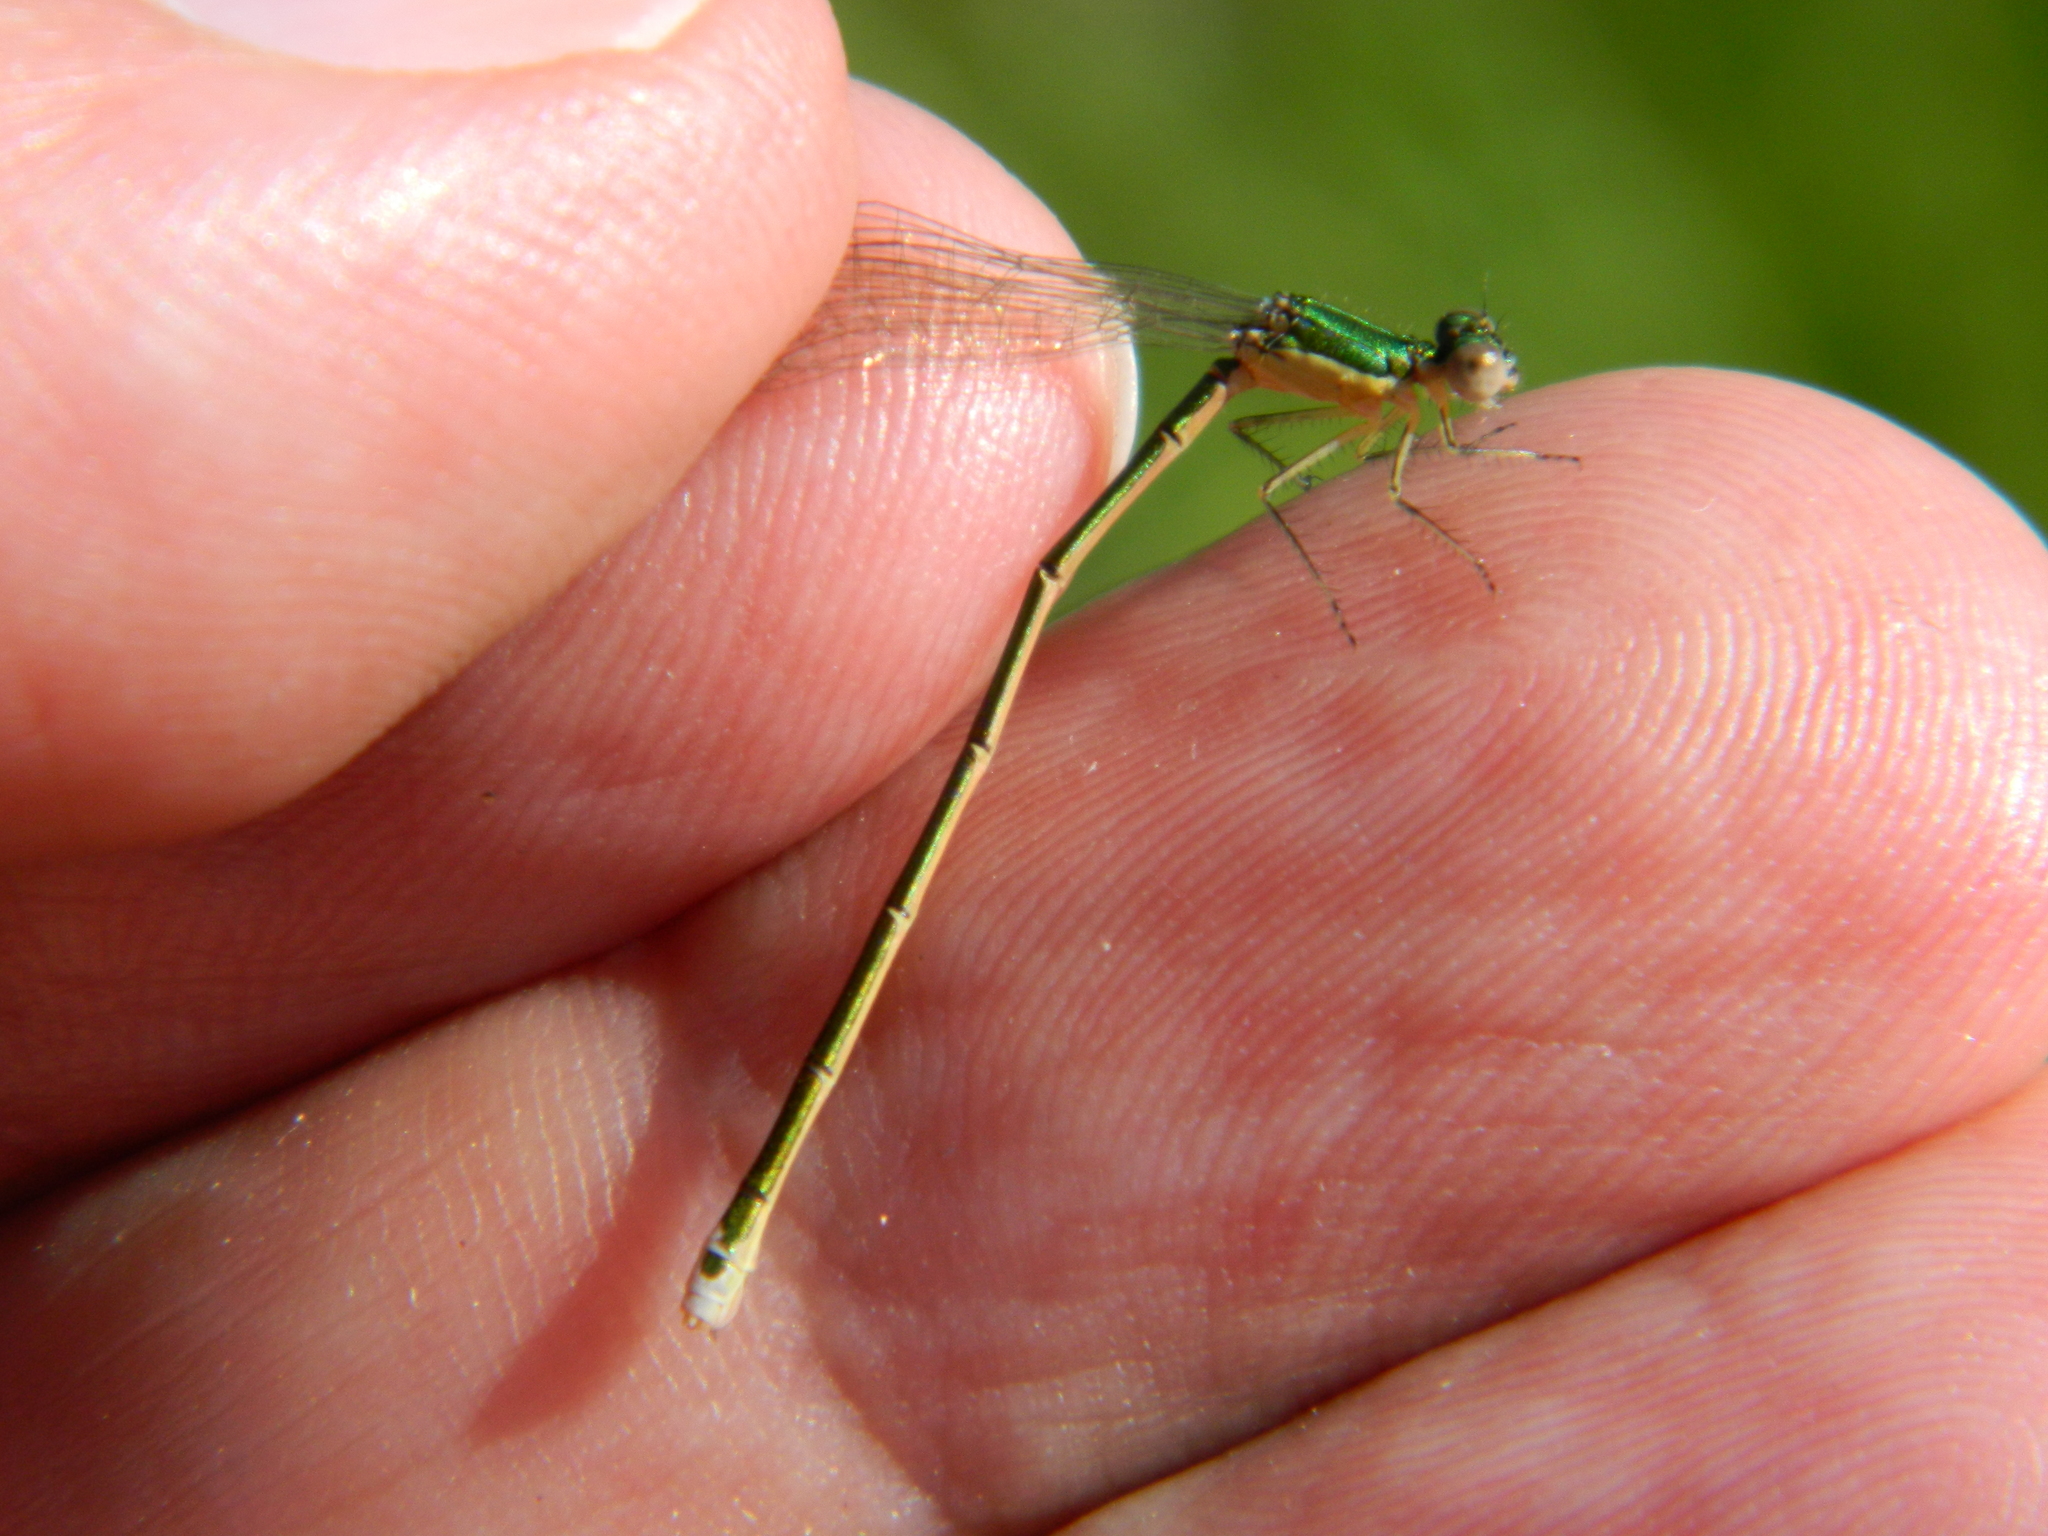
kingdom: Animalia
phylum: Arthropoda
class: Insecta
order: Odonata
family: Coenagrionidae
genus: Nehalennia
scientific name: Nehalennia irene
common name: Sedge sprite
